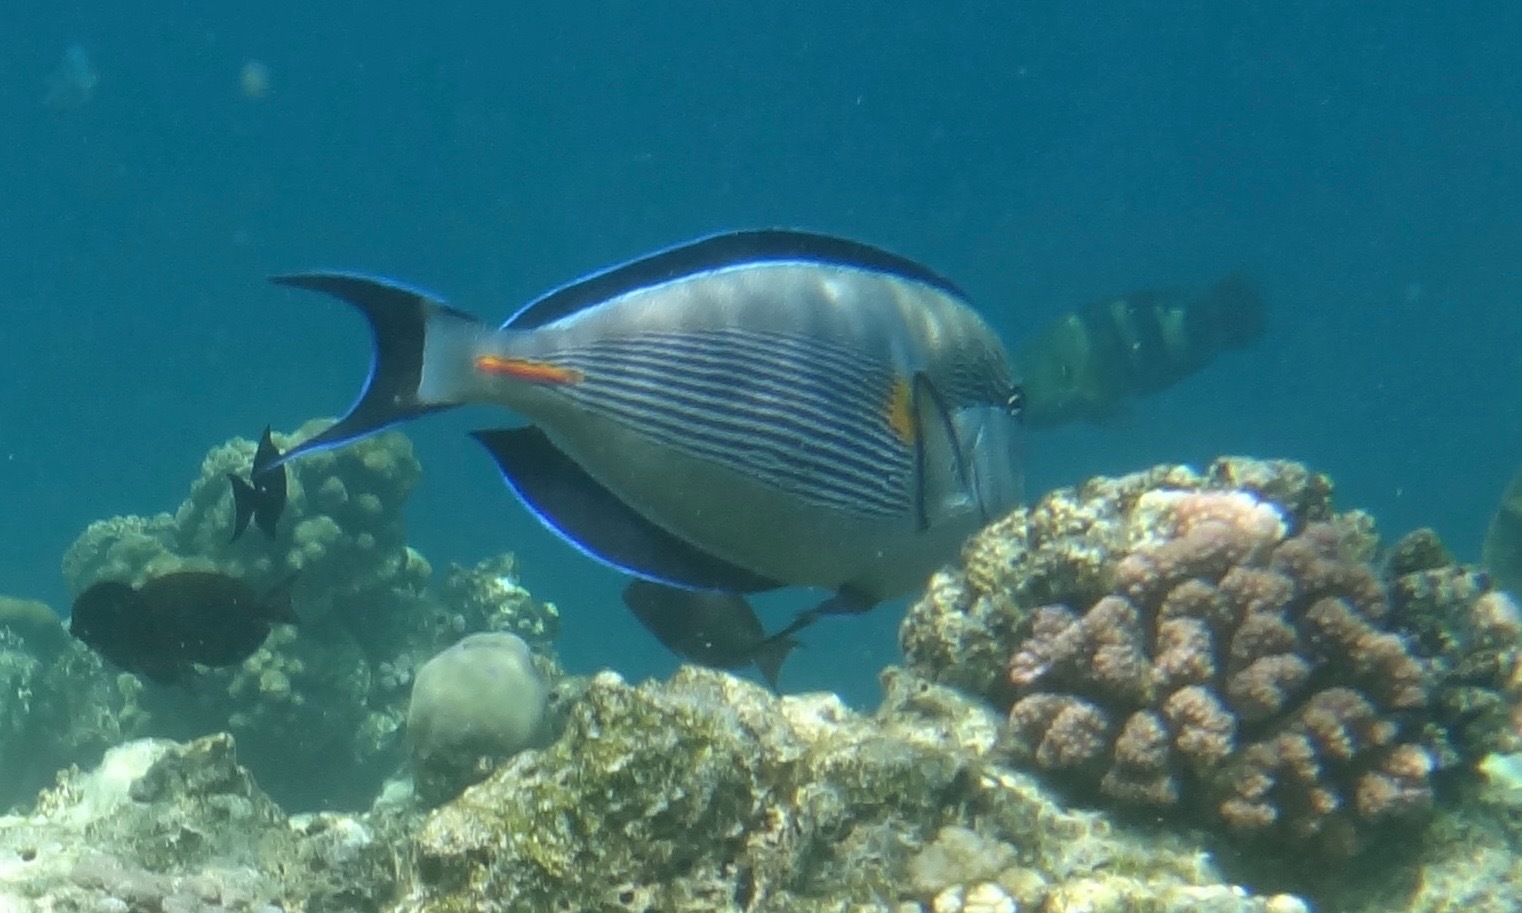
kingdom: Animalia
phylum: Chordata
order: Perciformes
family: Acanthuridae
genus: Acanthurus
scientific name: Acanthurus sohal
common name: Red sea surgeonfish
